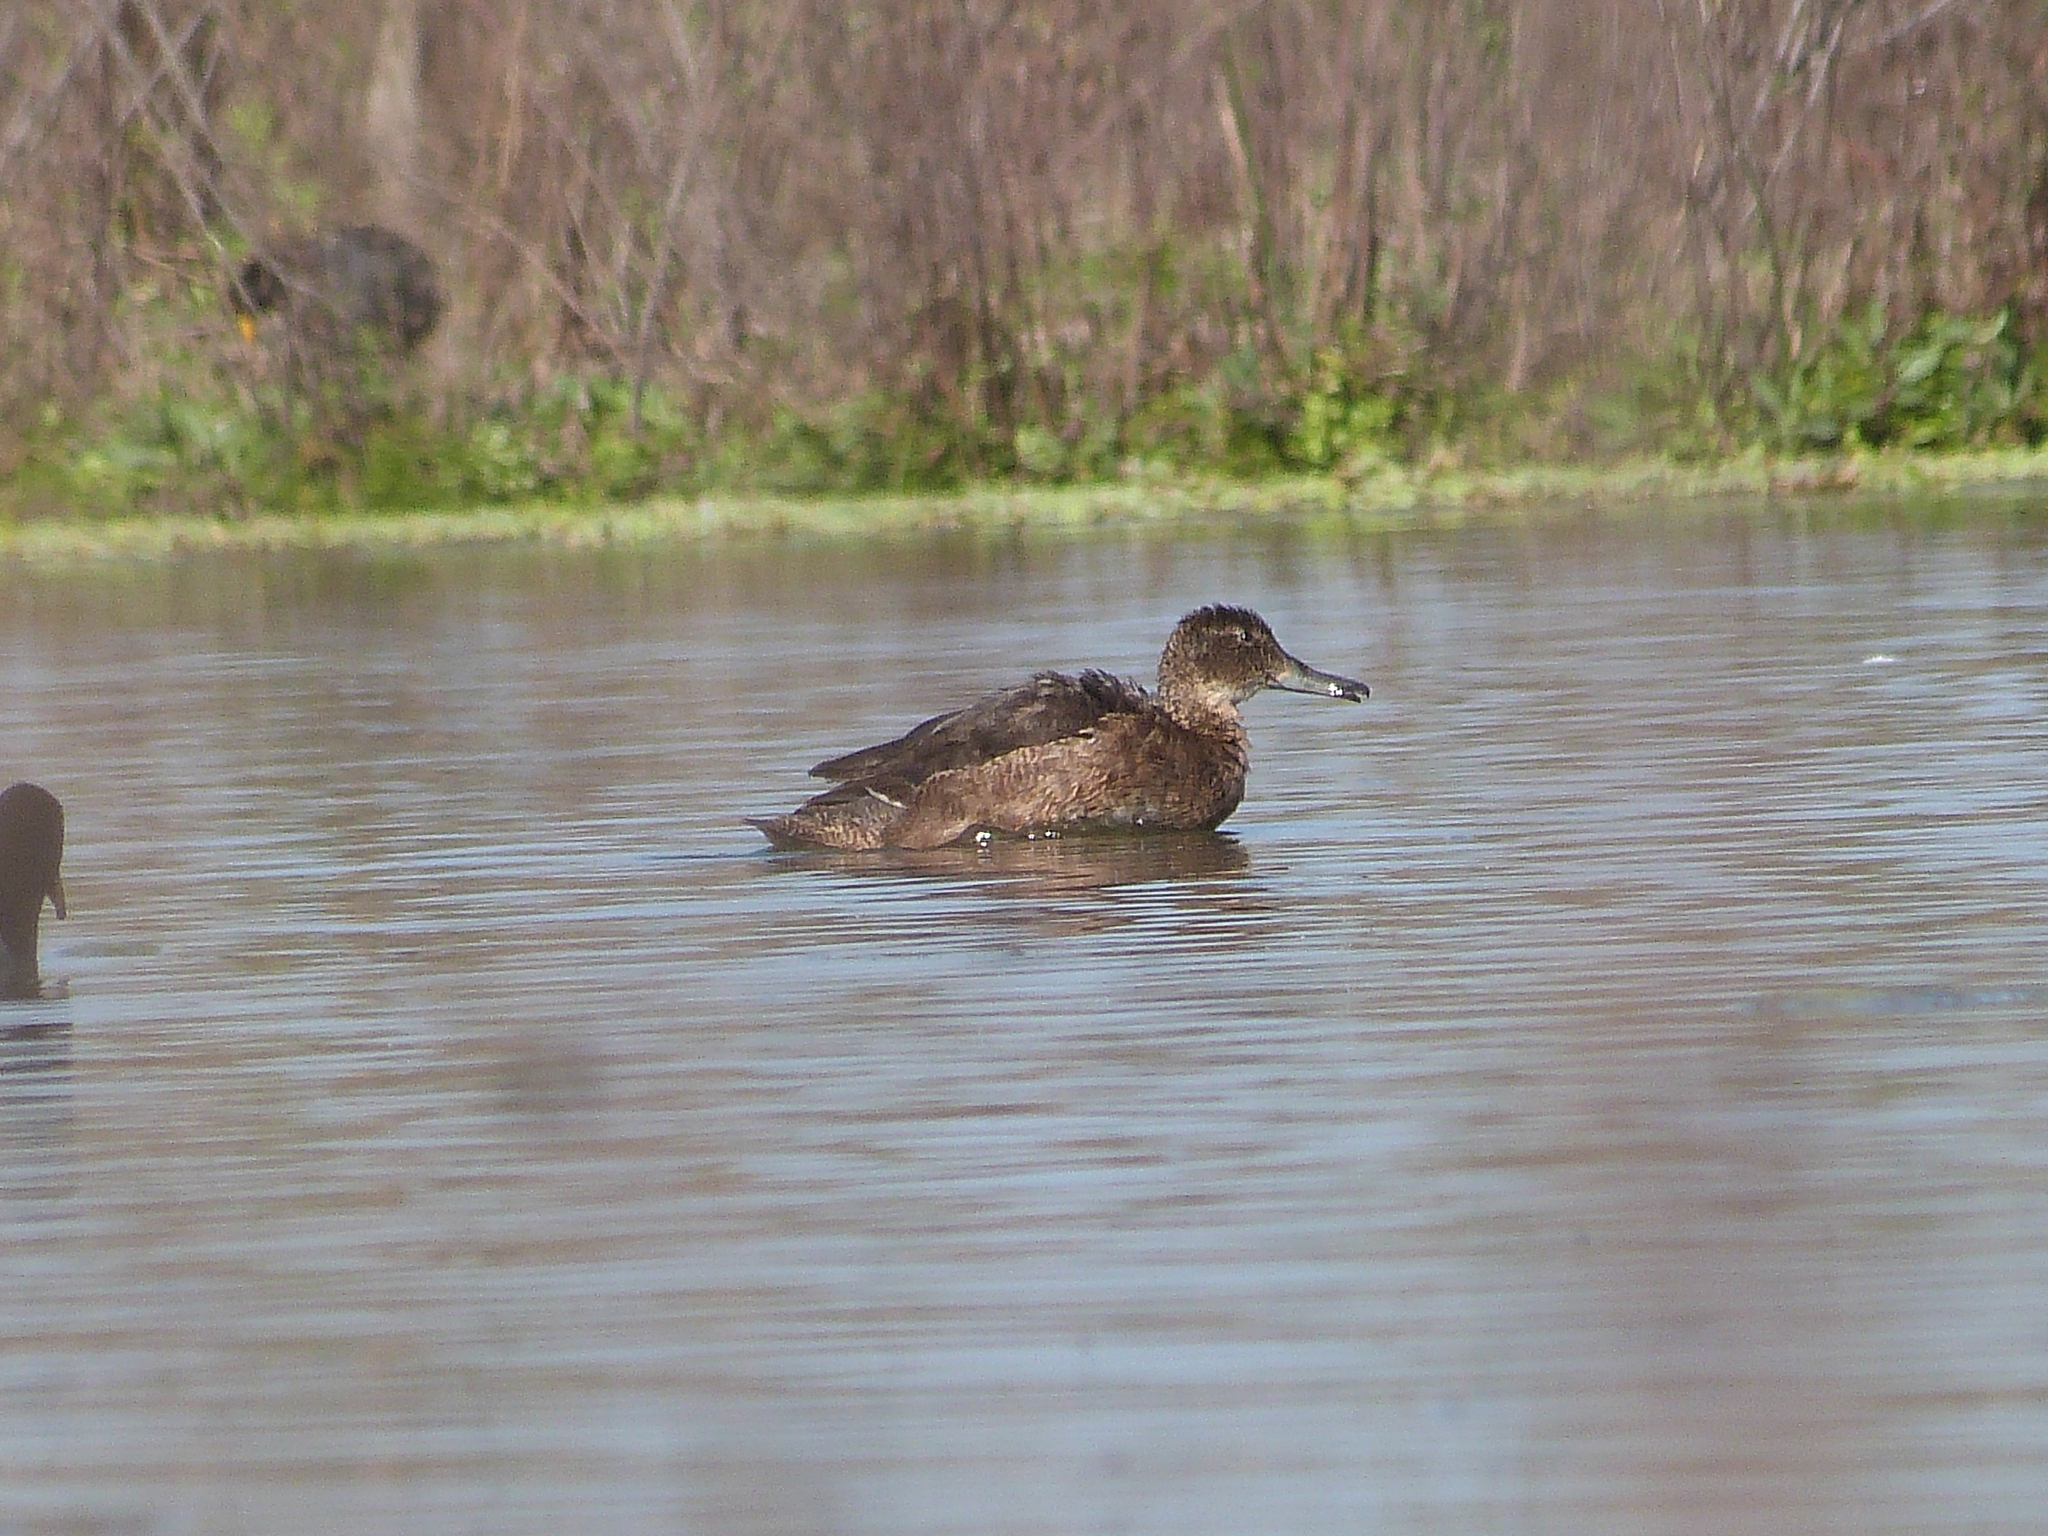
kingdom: Animalia
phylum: Chordata
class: Aves
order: Anseriformes
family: Anatidae
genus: Heteronetta
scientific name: Heteronetta atricapilla
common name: Black-headed duck
